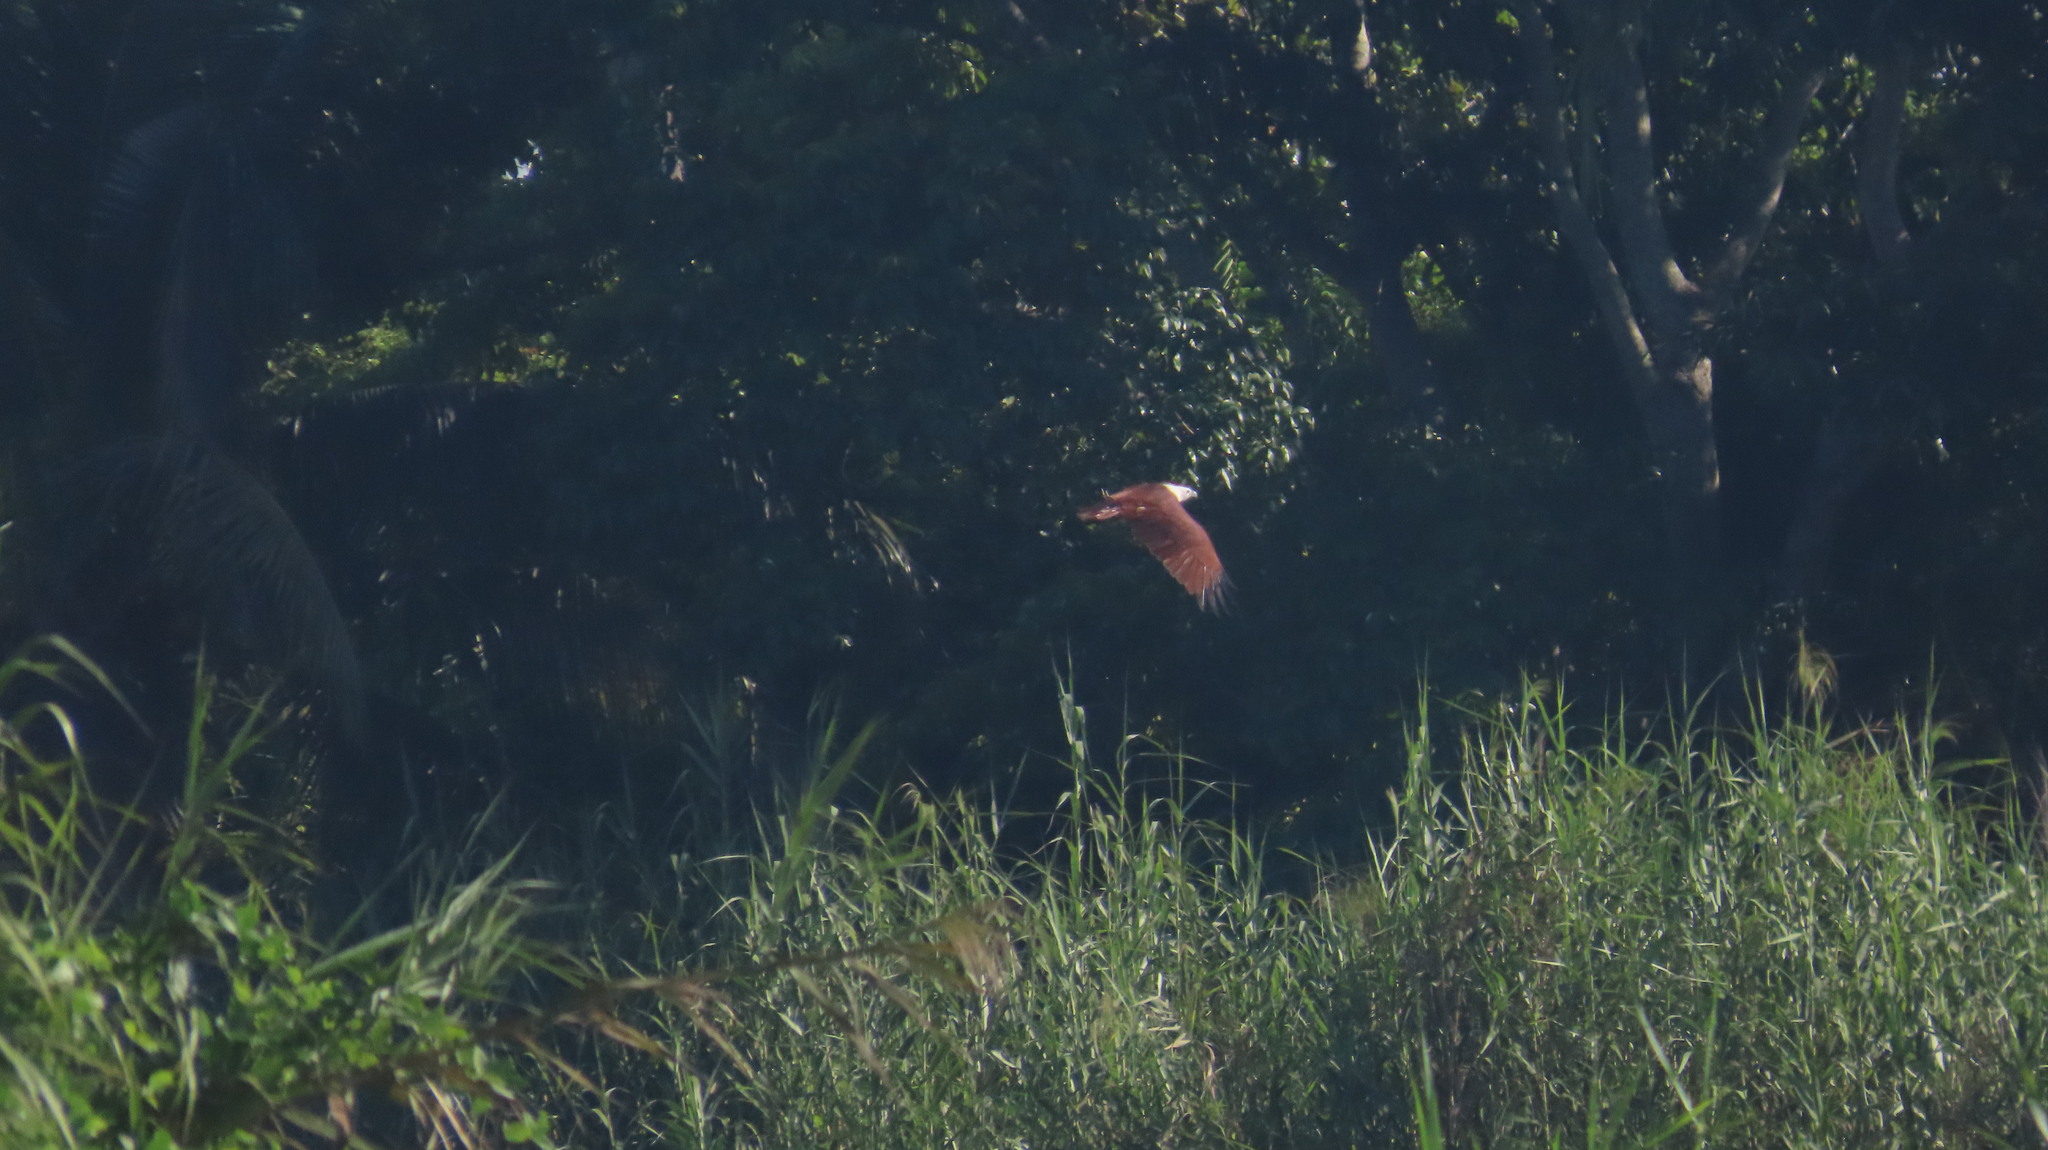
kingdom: Animalia
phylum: Chordata
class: Aves
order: Accipitriformes
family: Accipitridae
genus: Haliastur
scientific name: Haliastur indus
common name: Brahminy kite
